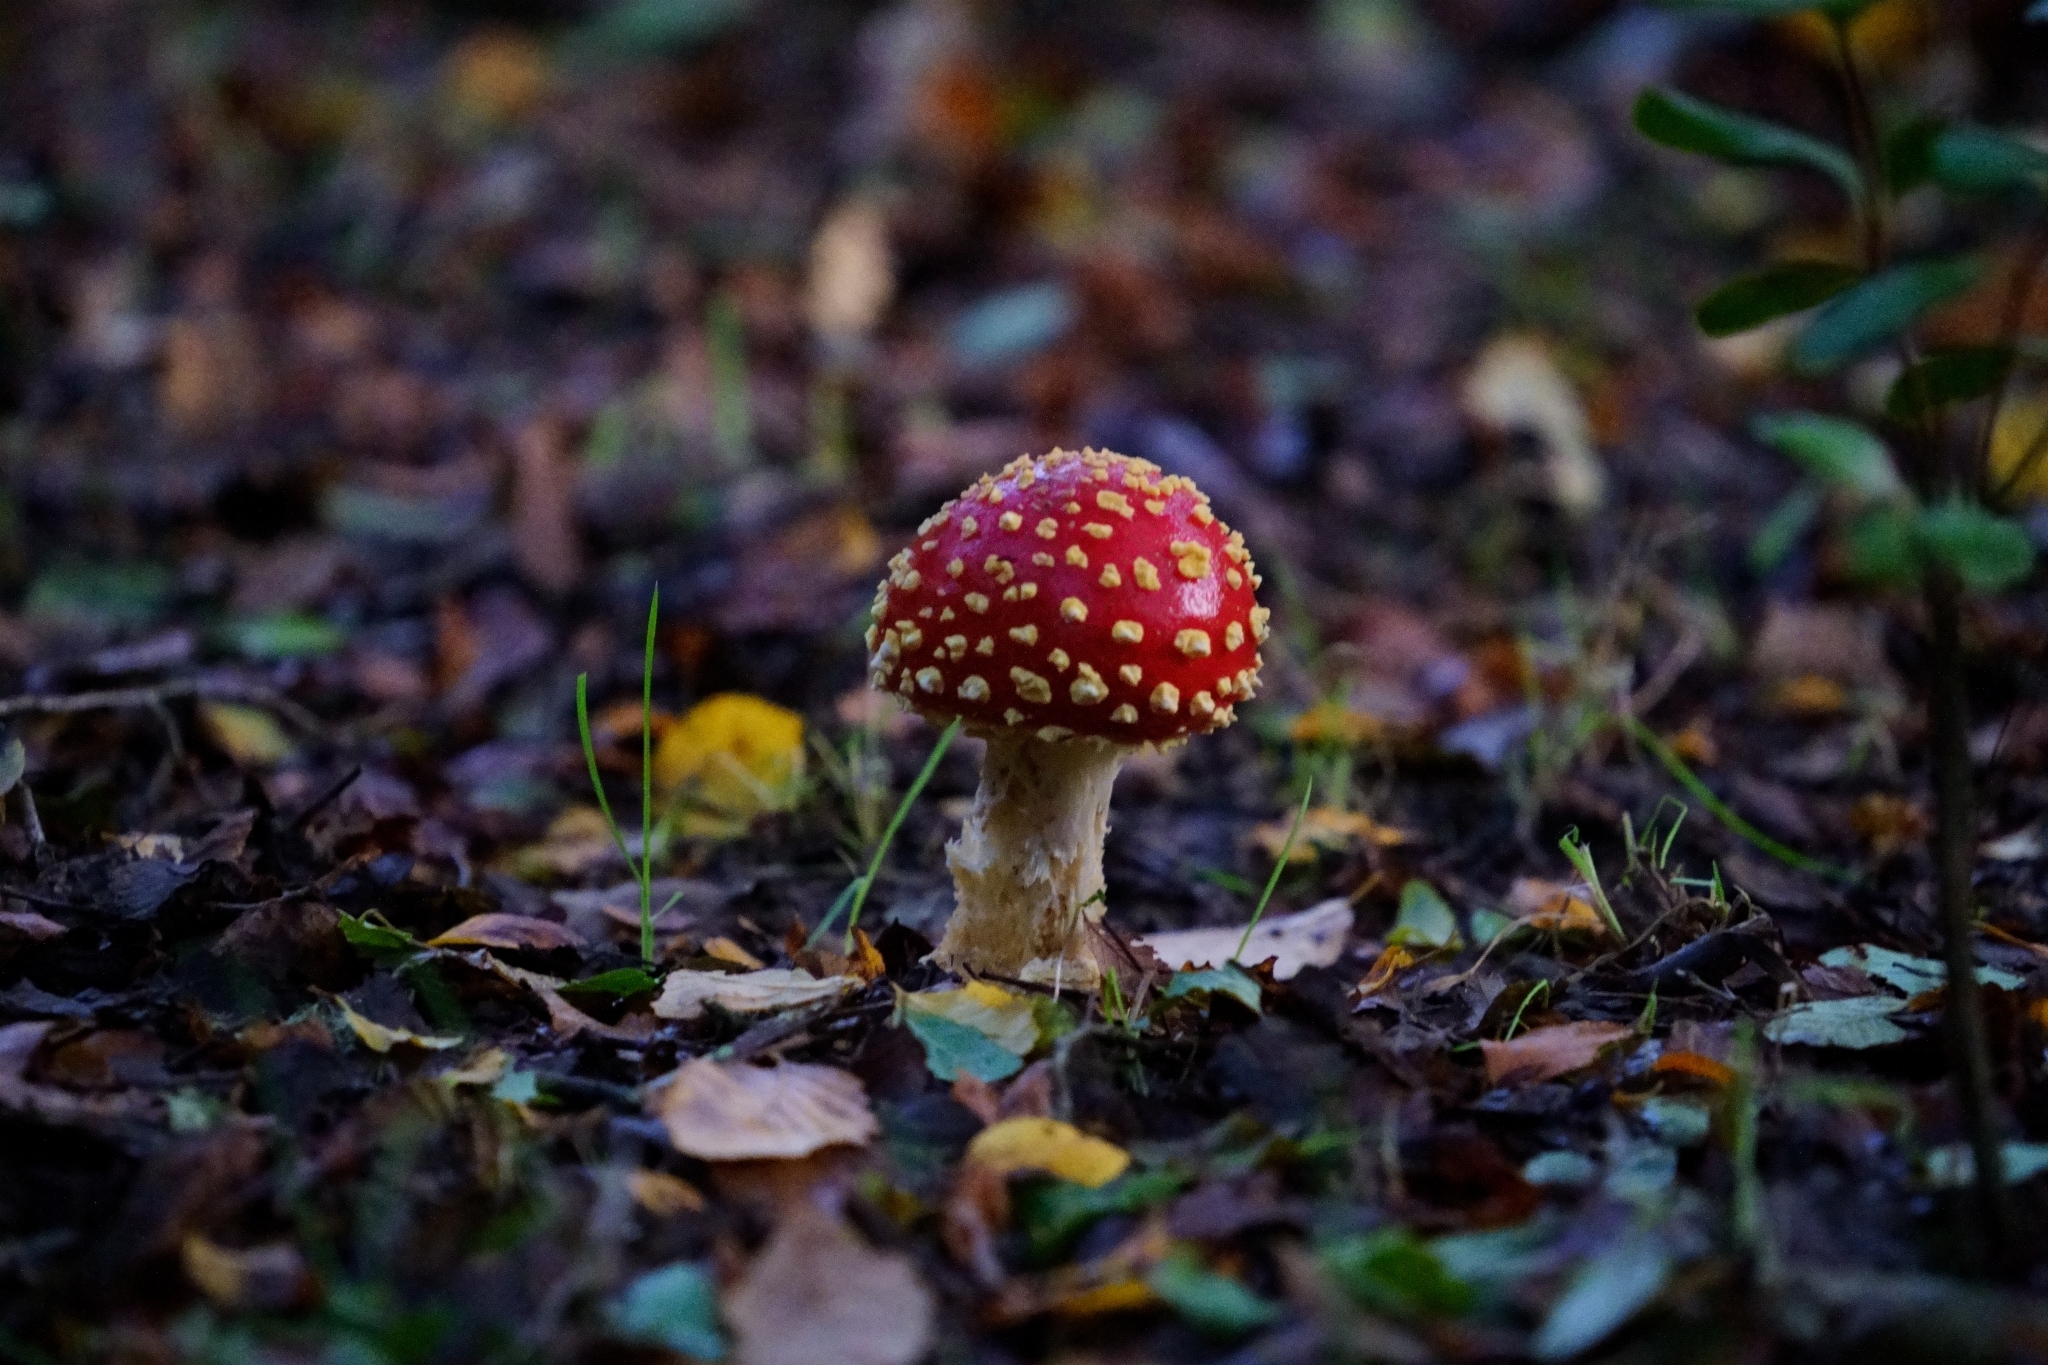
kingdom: Fungi
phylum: Basidiomycota
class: Agaricomycetes
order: Agaricales
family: Amanitaceae
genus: Amanita
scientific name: Amanita muscaria
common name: Fly agaric
